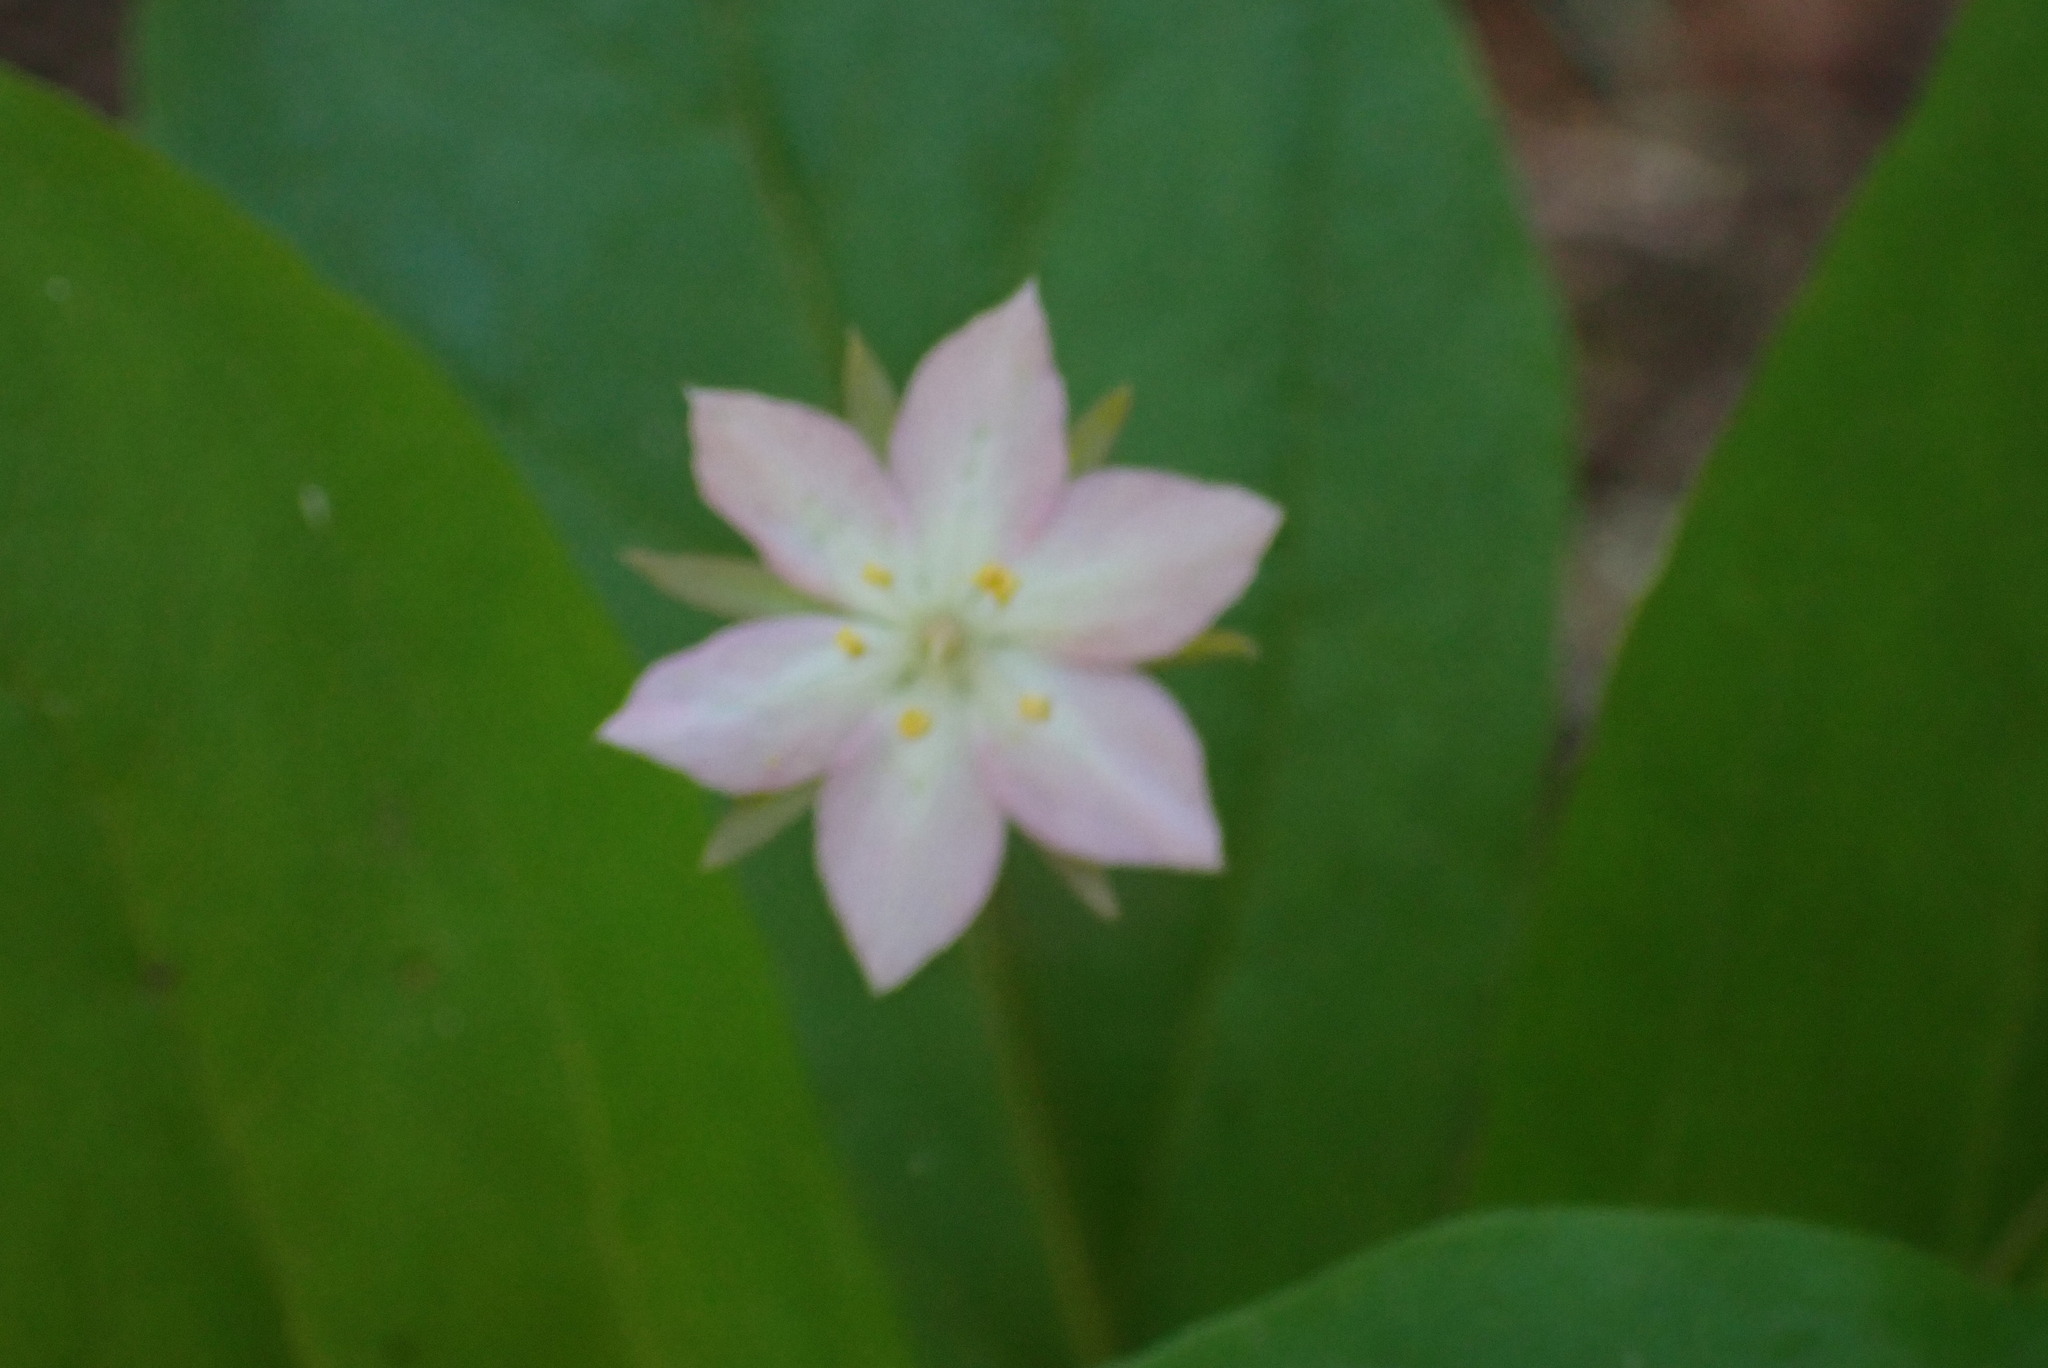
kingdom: Plantae
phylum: Tracheophyta
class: Magnoliopsida
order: Ericales
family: Primulaceae
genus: Lysimachia
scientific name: Lysimachia latifolia
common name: Pacific starflower
